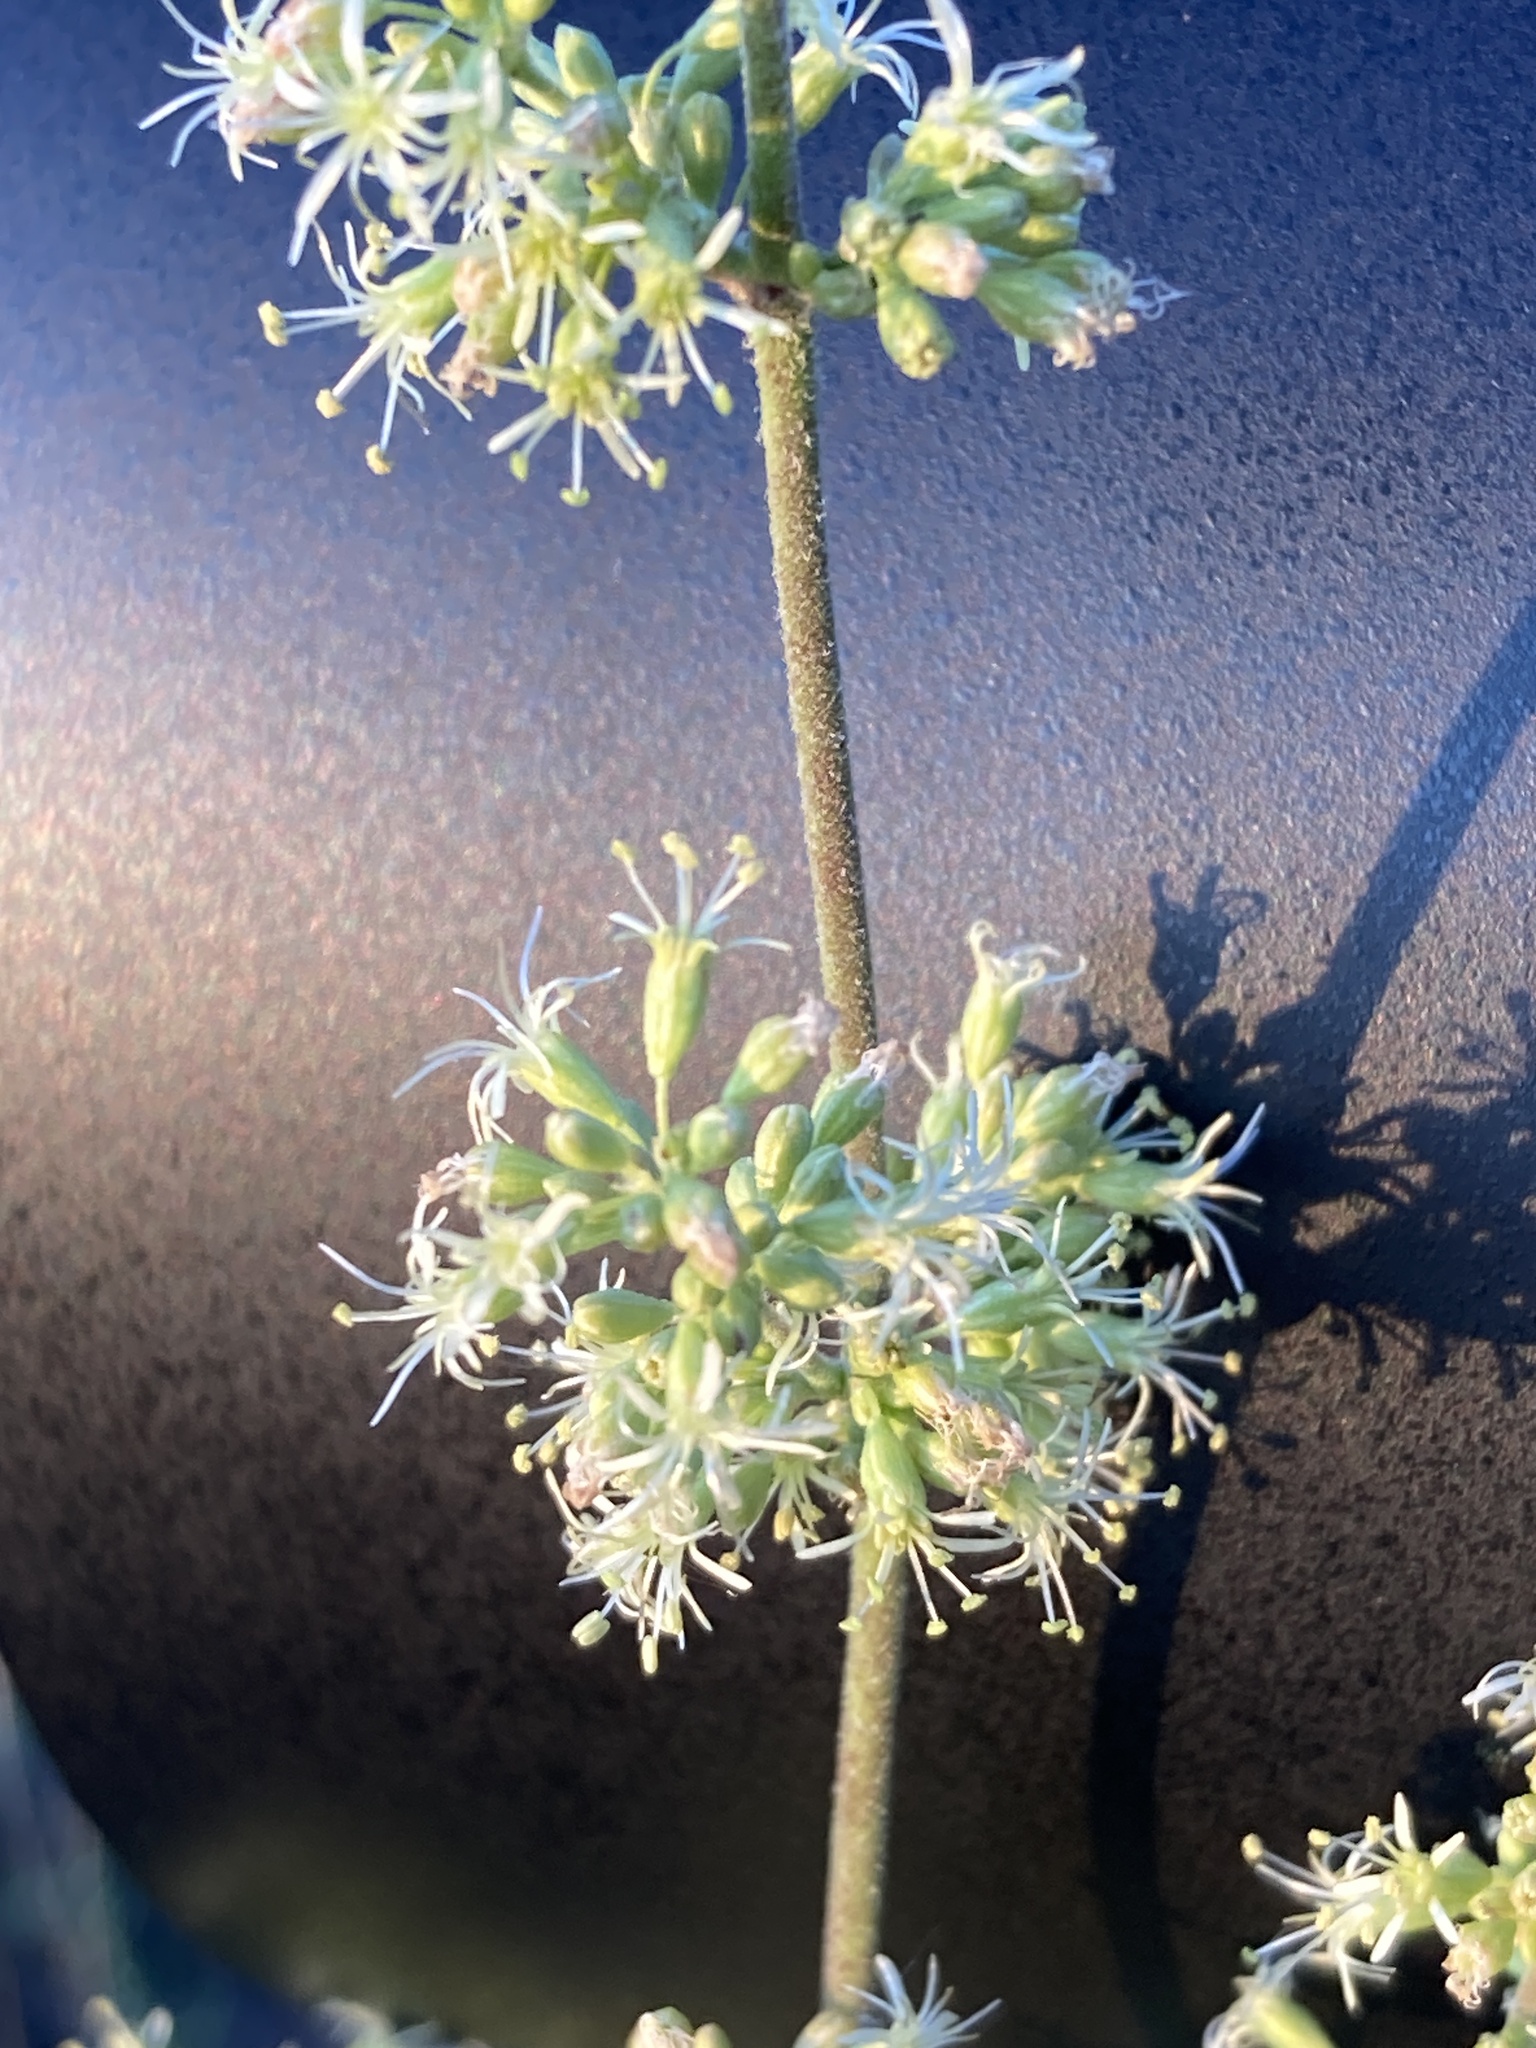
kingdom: Plantae
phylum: Tracheophyta
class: Magnoliopsida
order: Caryophyllales
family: Caryophyllaceae
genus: Silene
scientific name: Silene borysthenica
